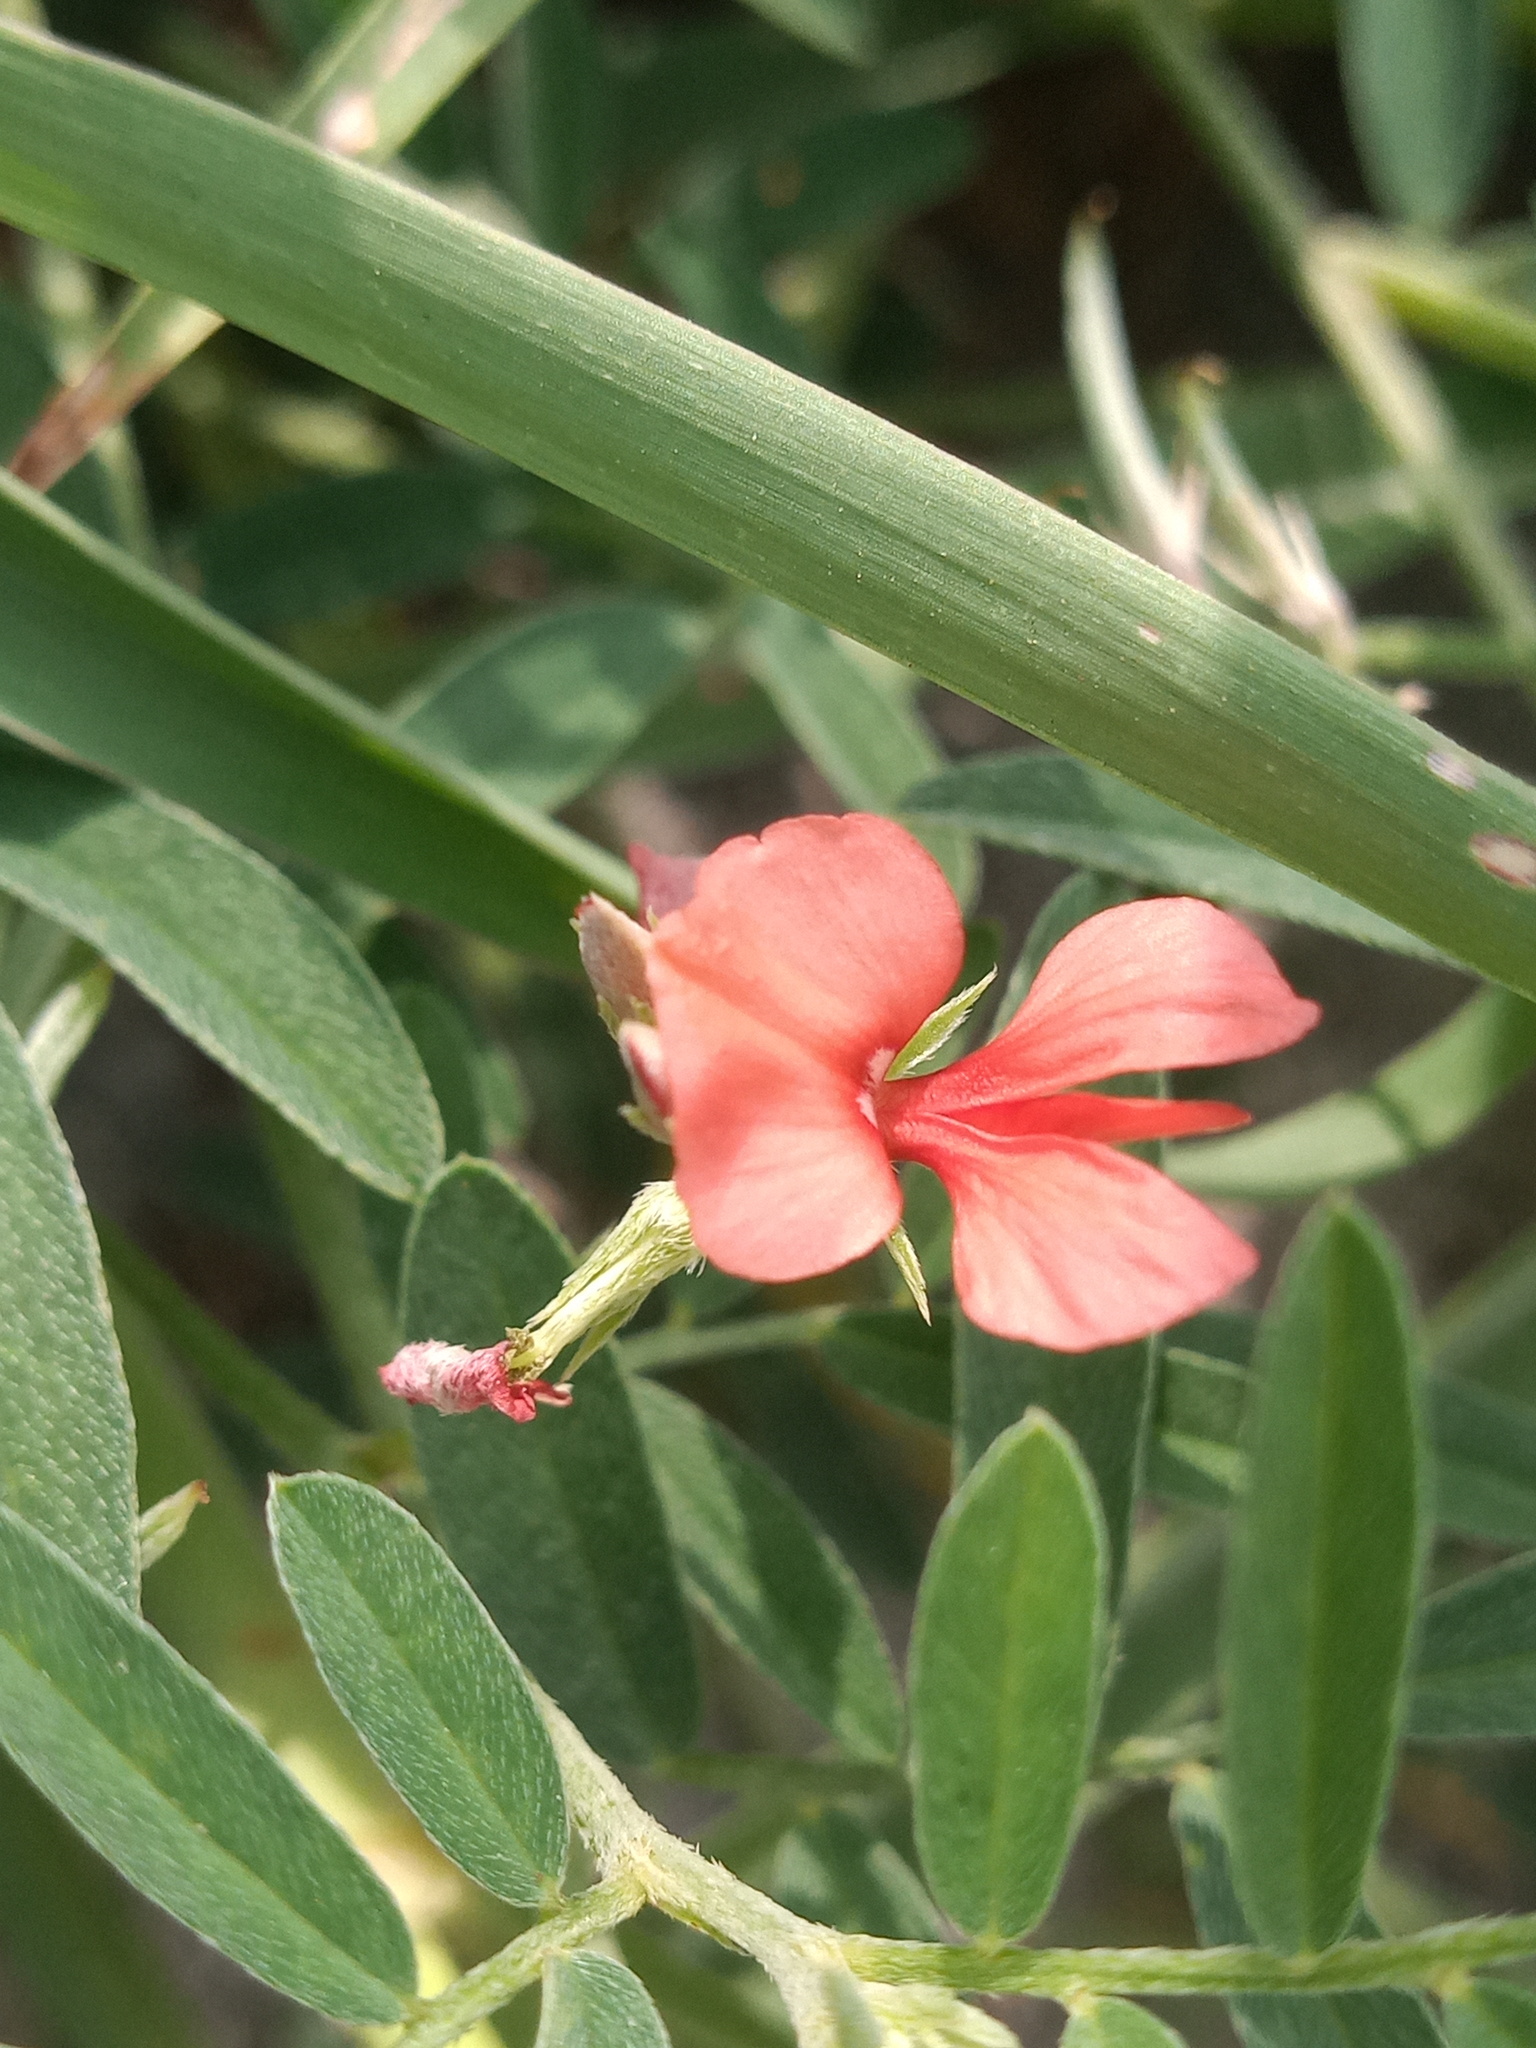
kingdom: Plantae
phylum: Tracheophyta
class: Magnoliopsida
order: Fabales
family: Fabaceae
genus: Indigofera
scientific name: Indigofera miniata
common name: Coast indigo
